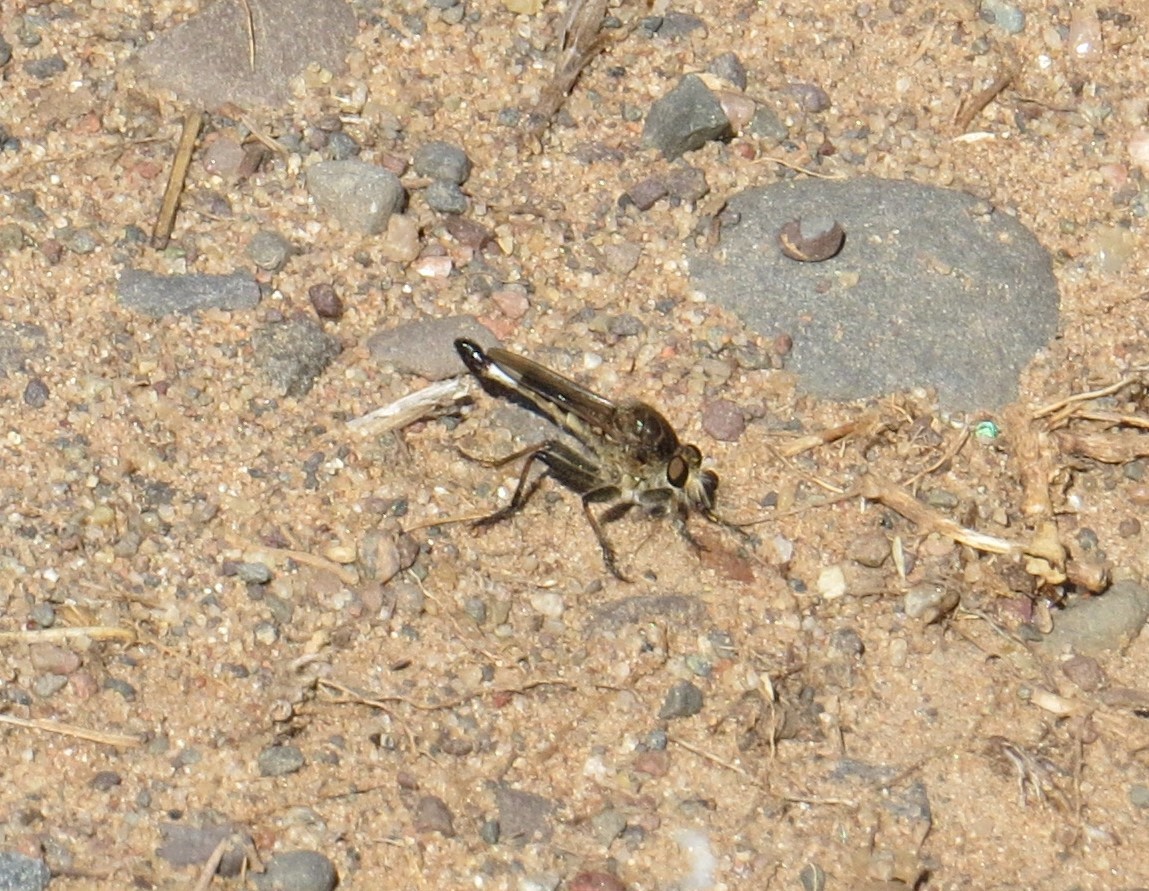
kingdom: Animalia
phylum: Arthropoda
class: Insecta
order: Diptera
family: Asilidae
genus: Efferia
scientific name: Efferia albibarbis
